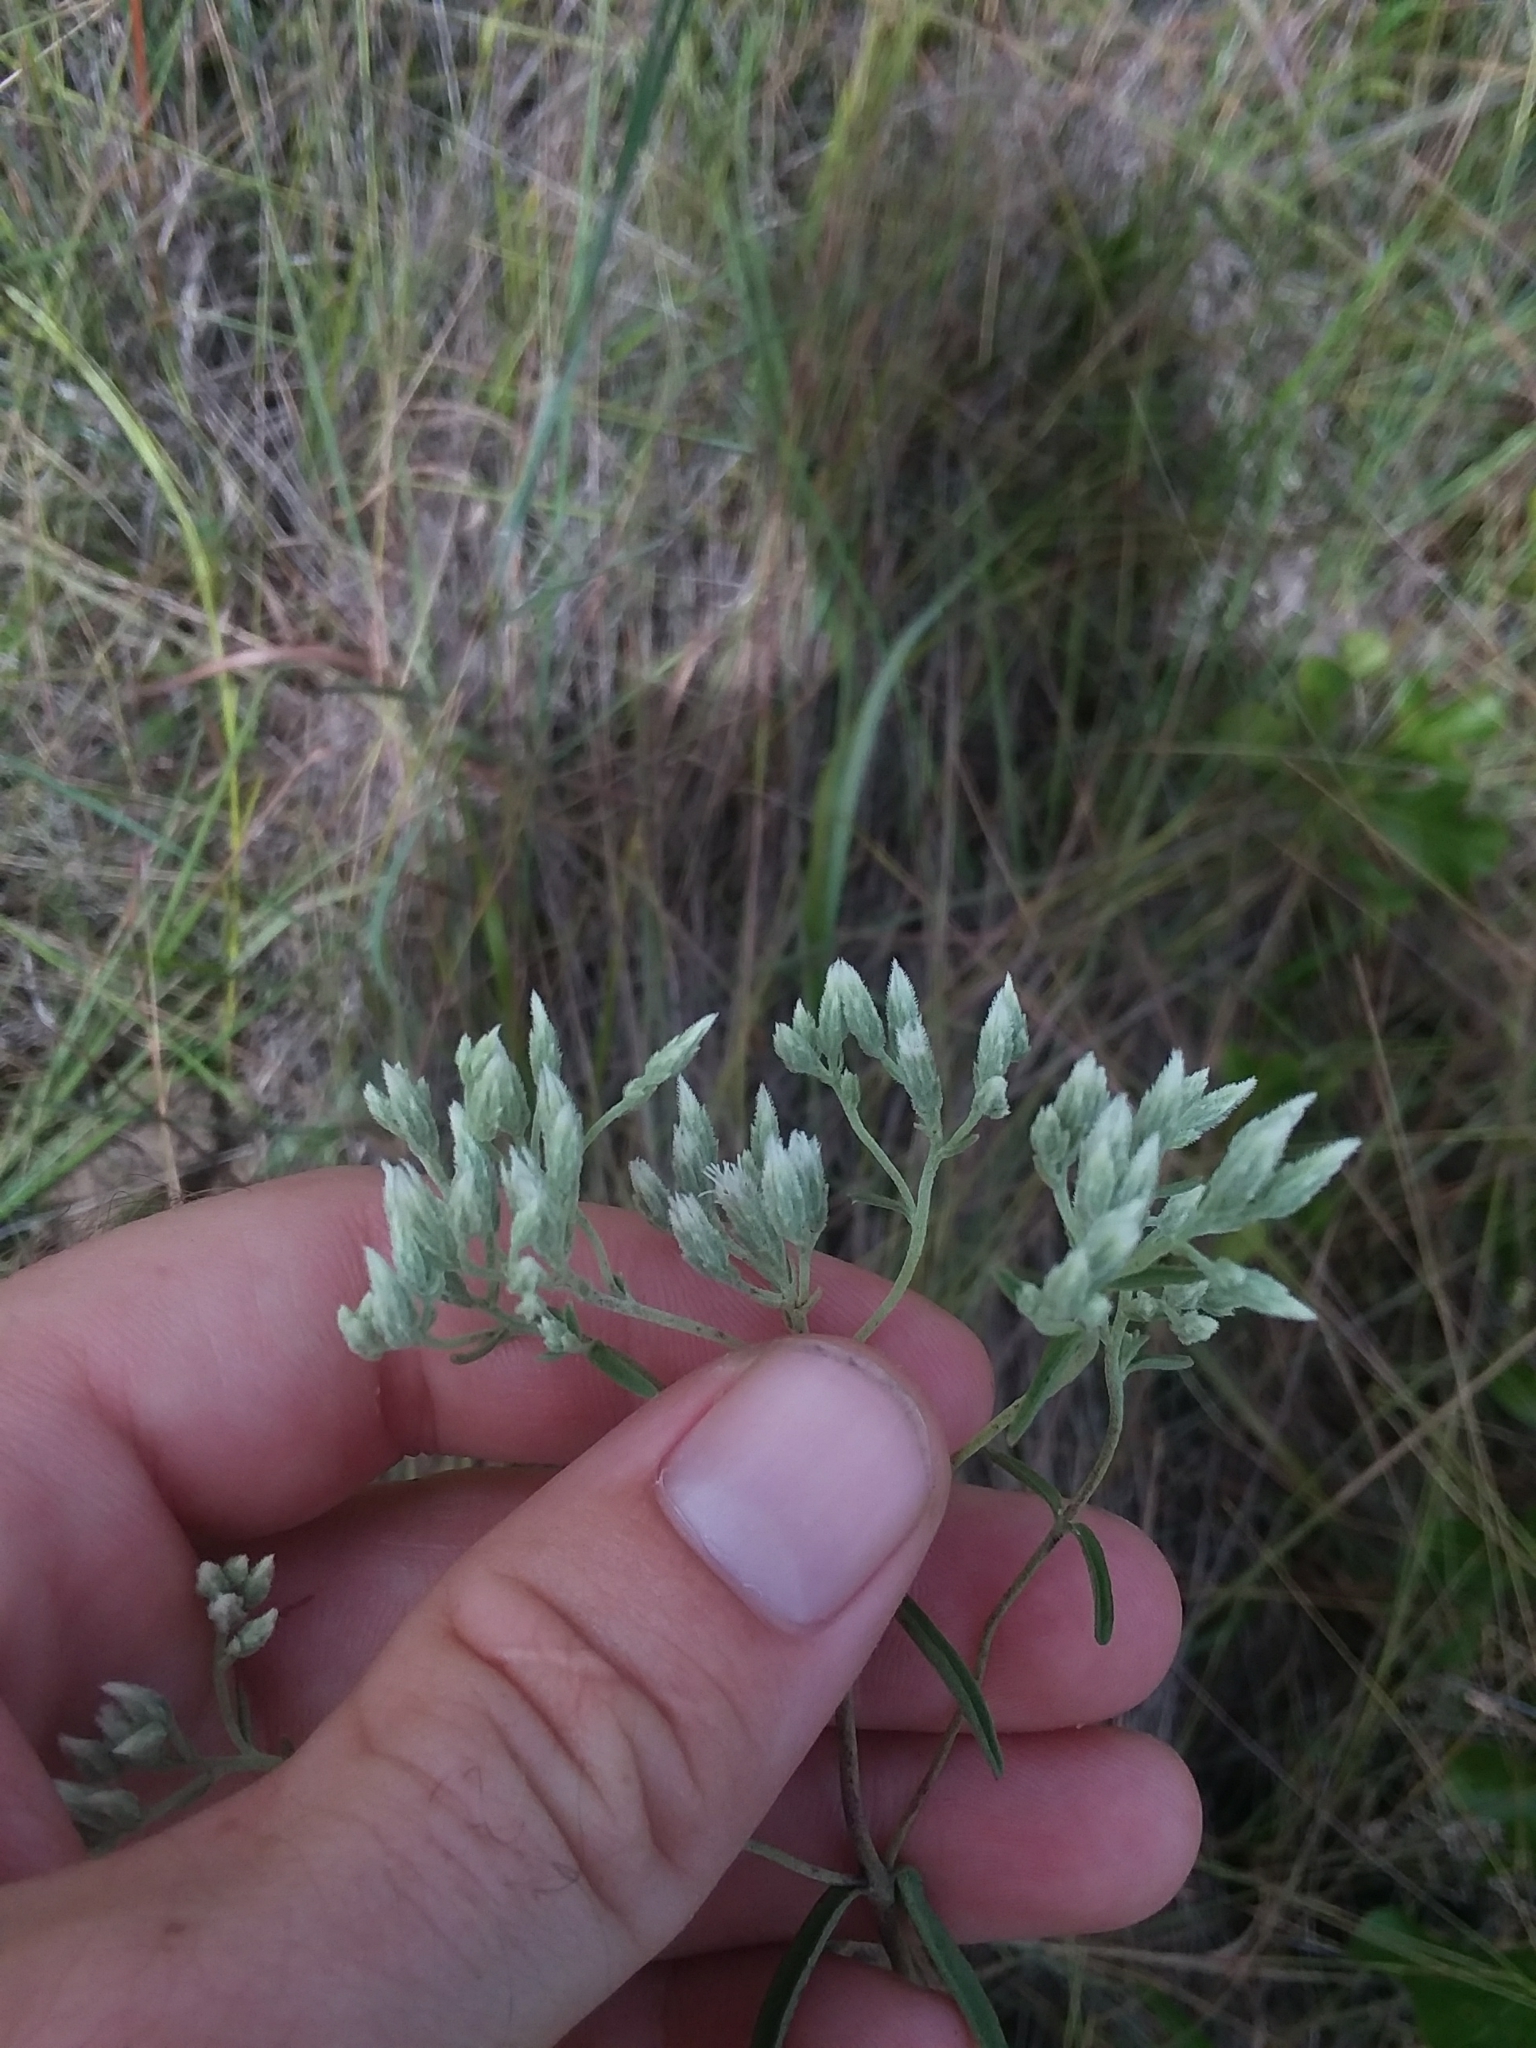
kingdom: Plantae
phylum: Tracheophyta
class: Magnoliopsida
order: Asterales
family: Asteraceae
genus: Eupatorium
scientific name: Eupatorium leucolepis
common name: Justiceweed
